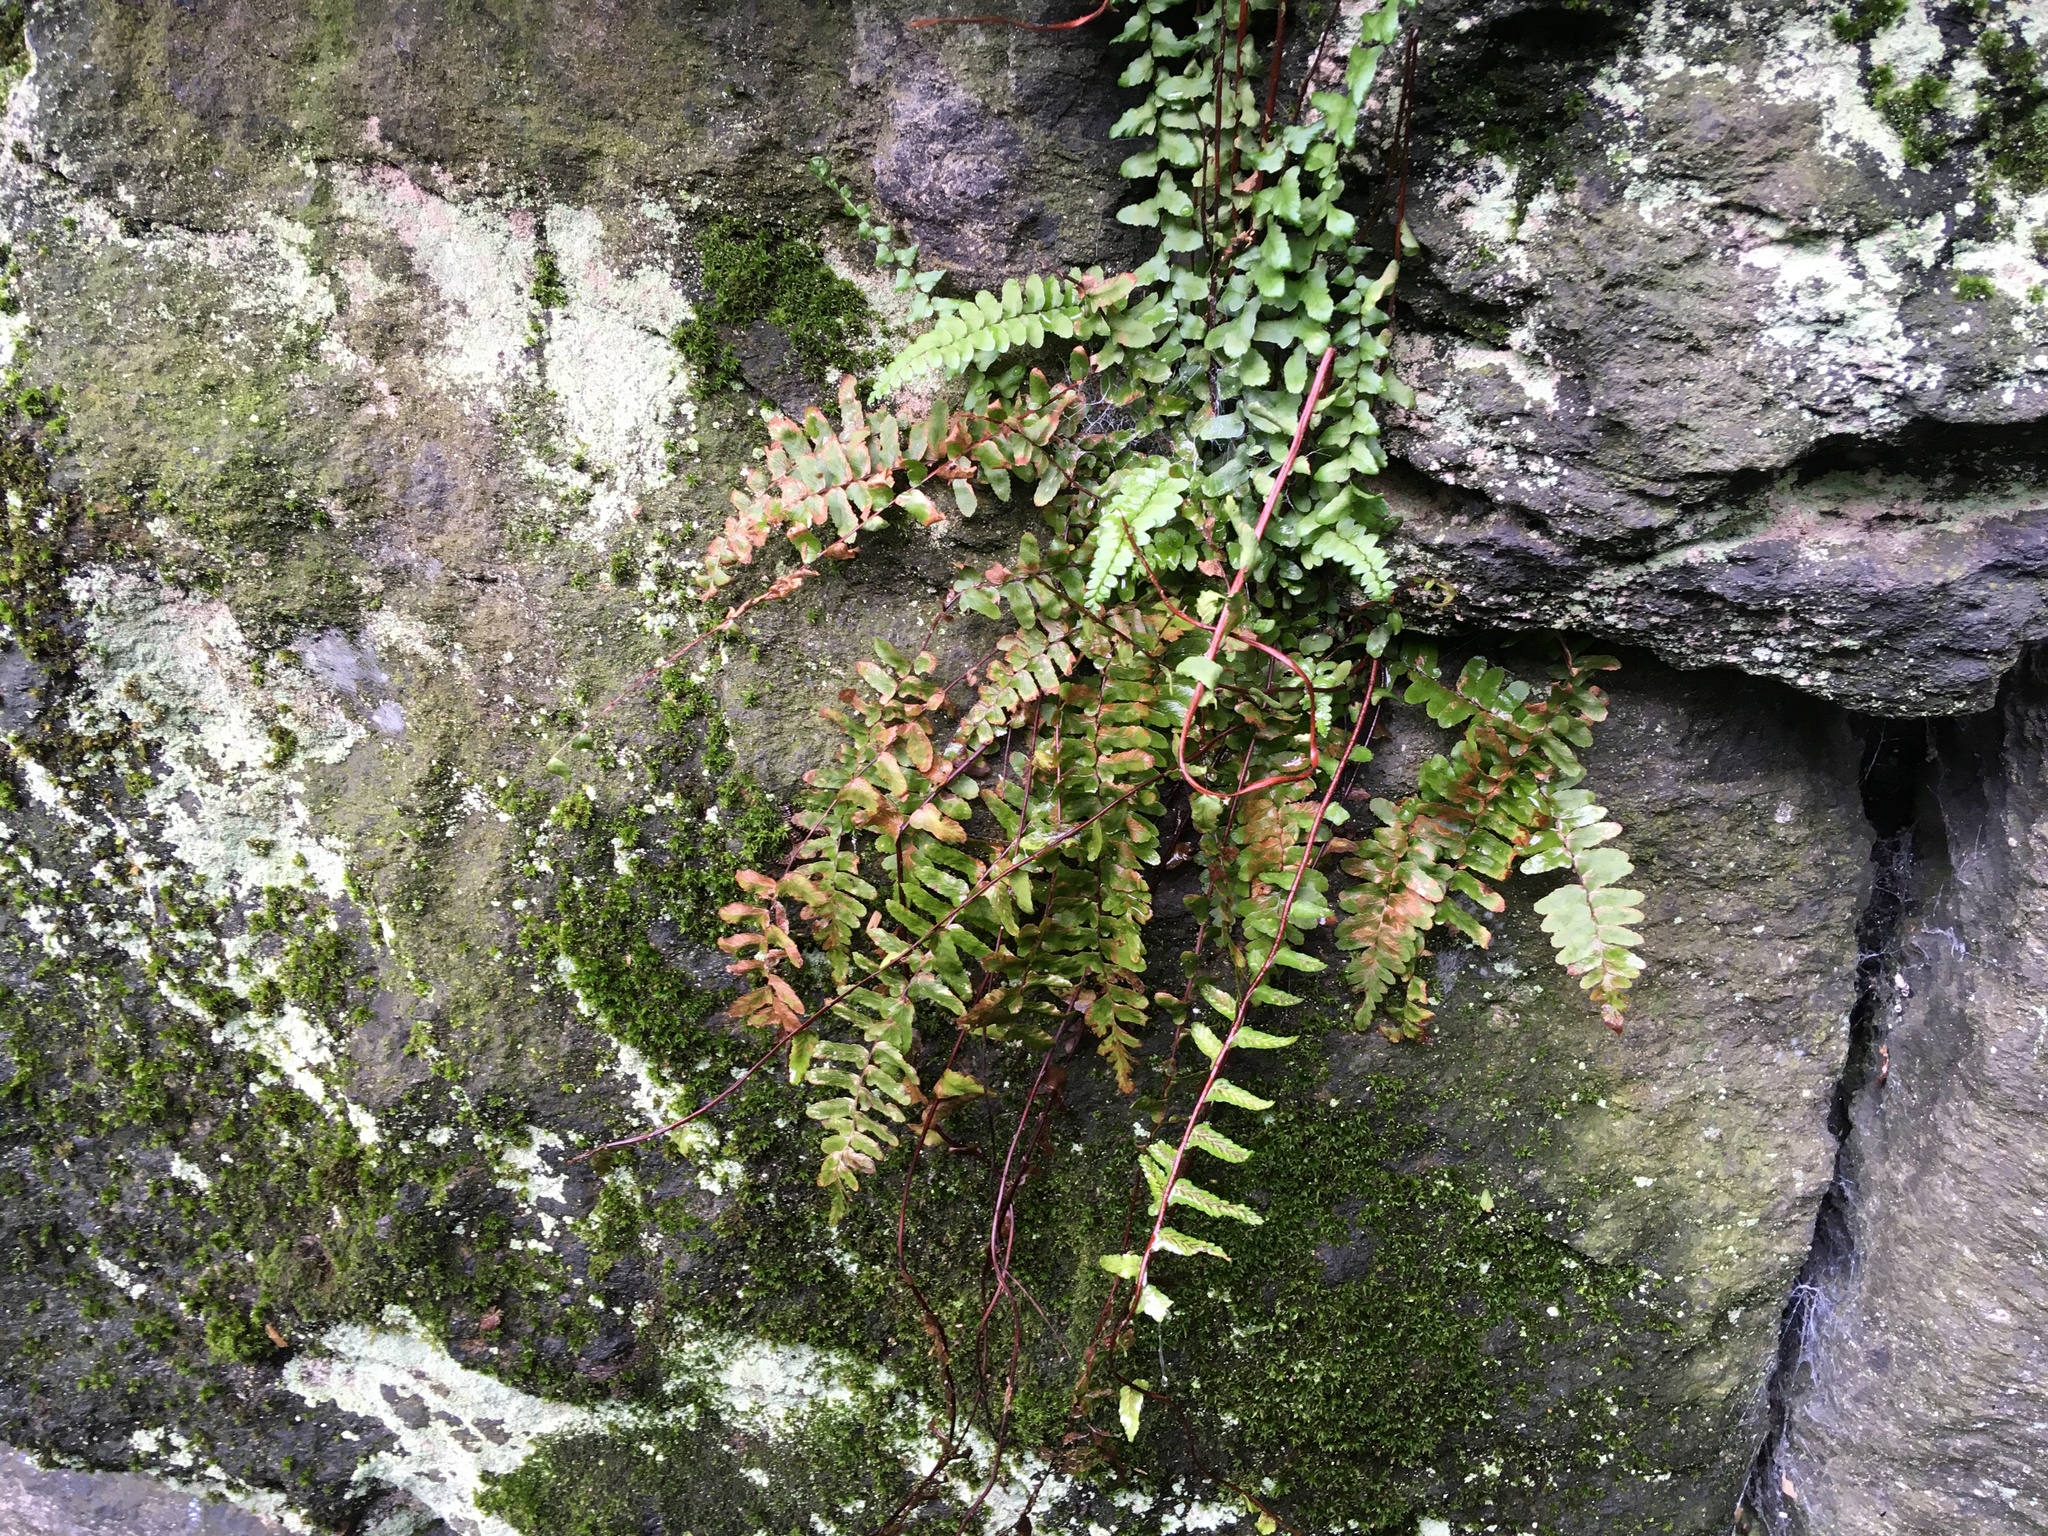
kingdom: Plantae
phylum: Tracheophyta
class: Polypodiopsida
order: Polypodiales
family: Aspleniaceae
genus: Asplenium
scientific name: Asplenium platyneuron
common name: Ebony spleenwort
